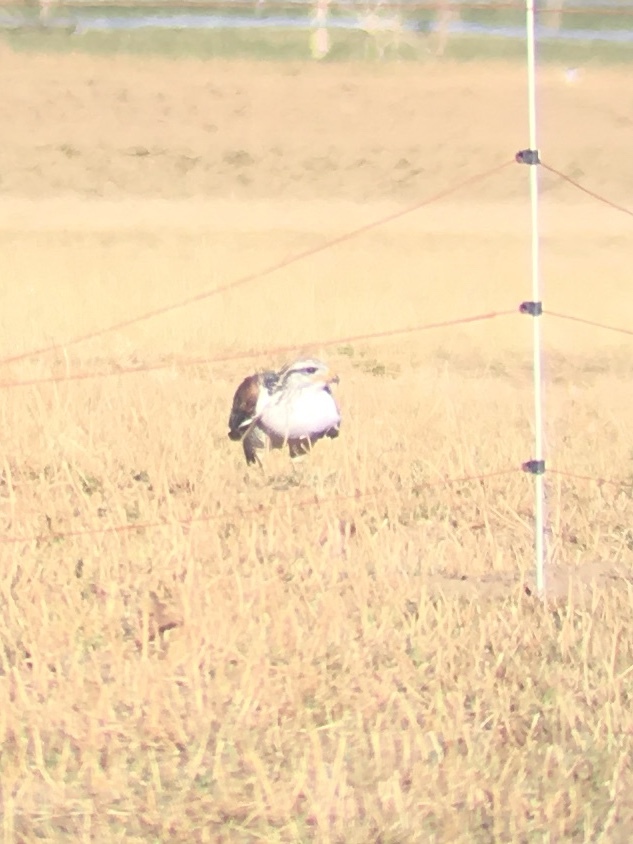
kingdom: Animalia
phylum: Chordata
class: Aves
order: Accipitriformes
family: Accipitridae
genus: Buteo
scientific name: Buteo regalis
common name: Ferruginous hawk
